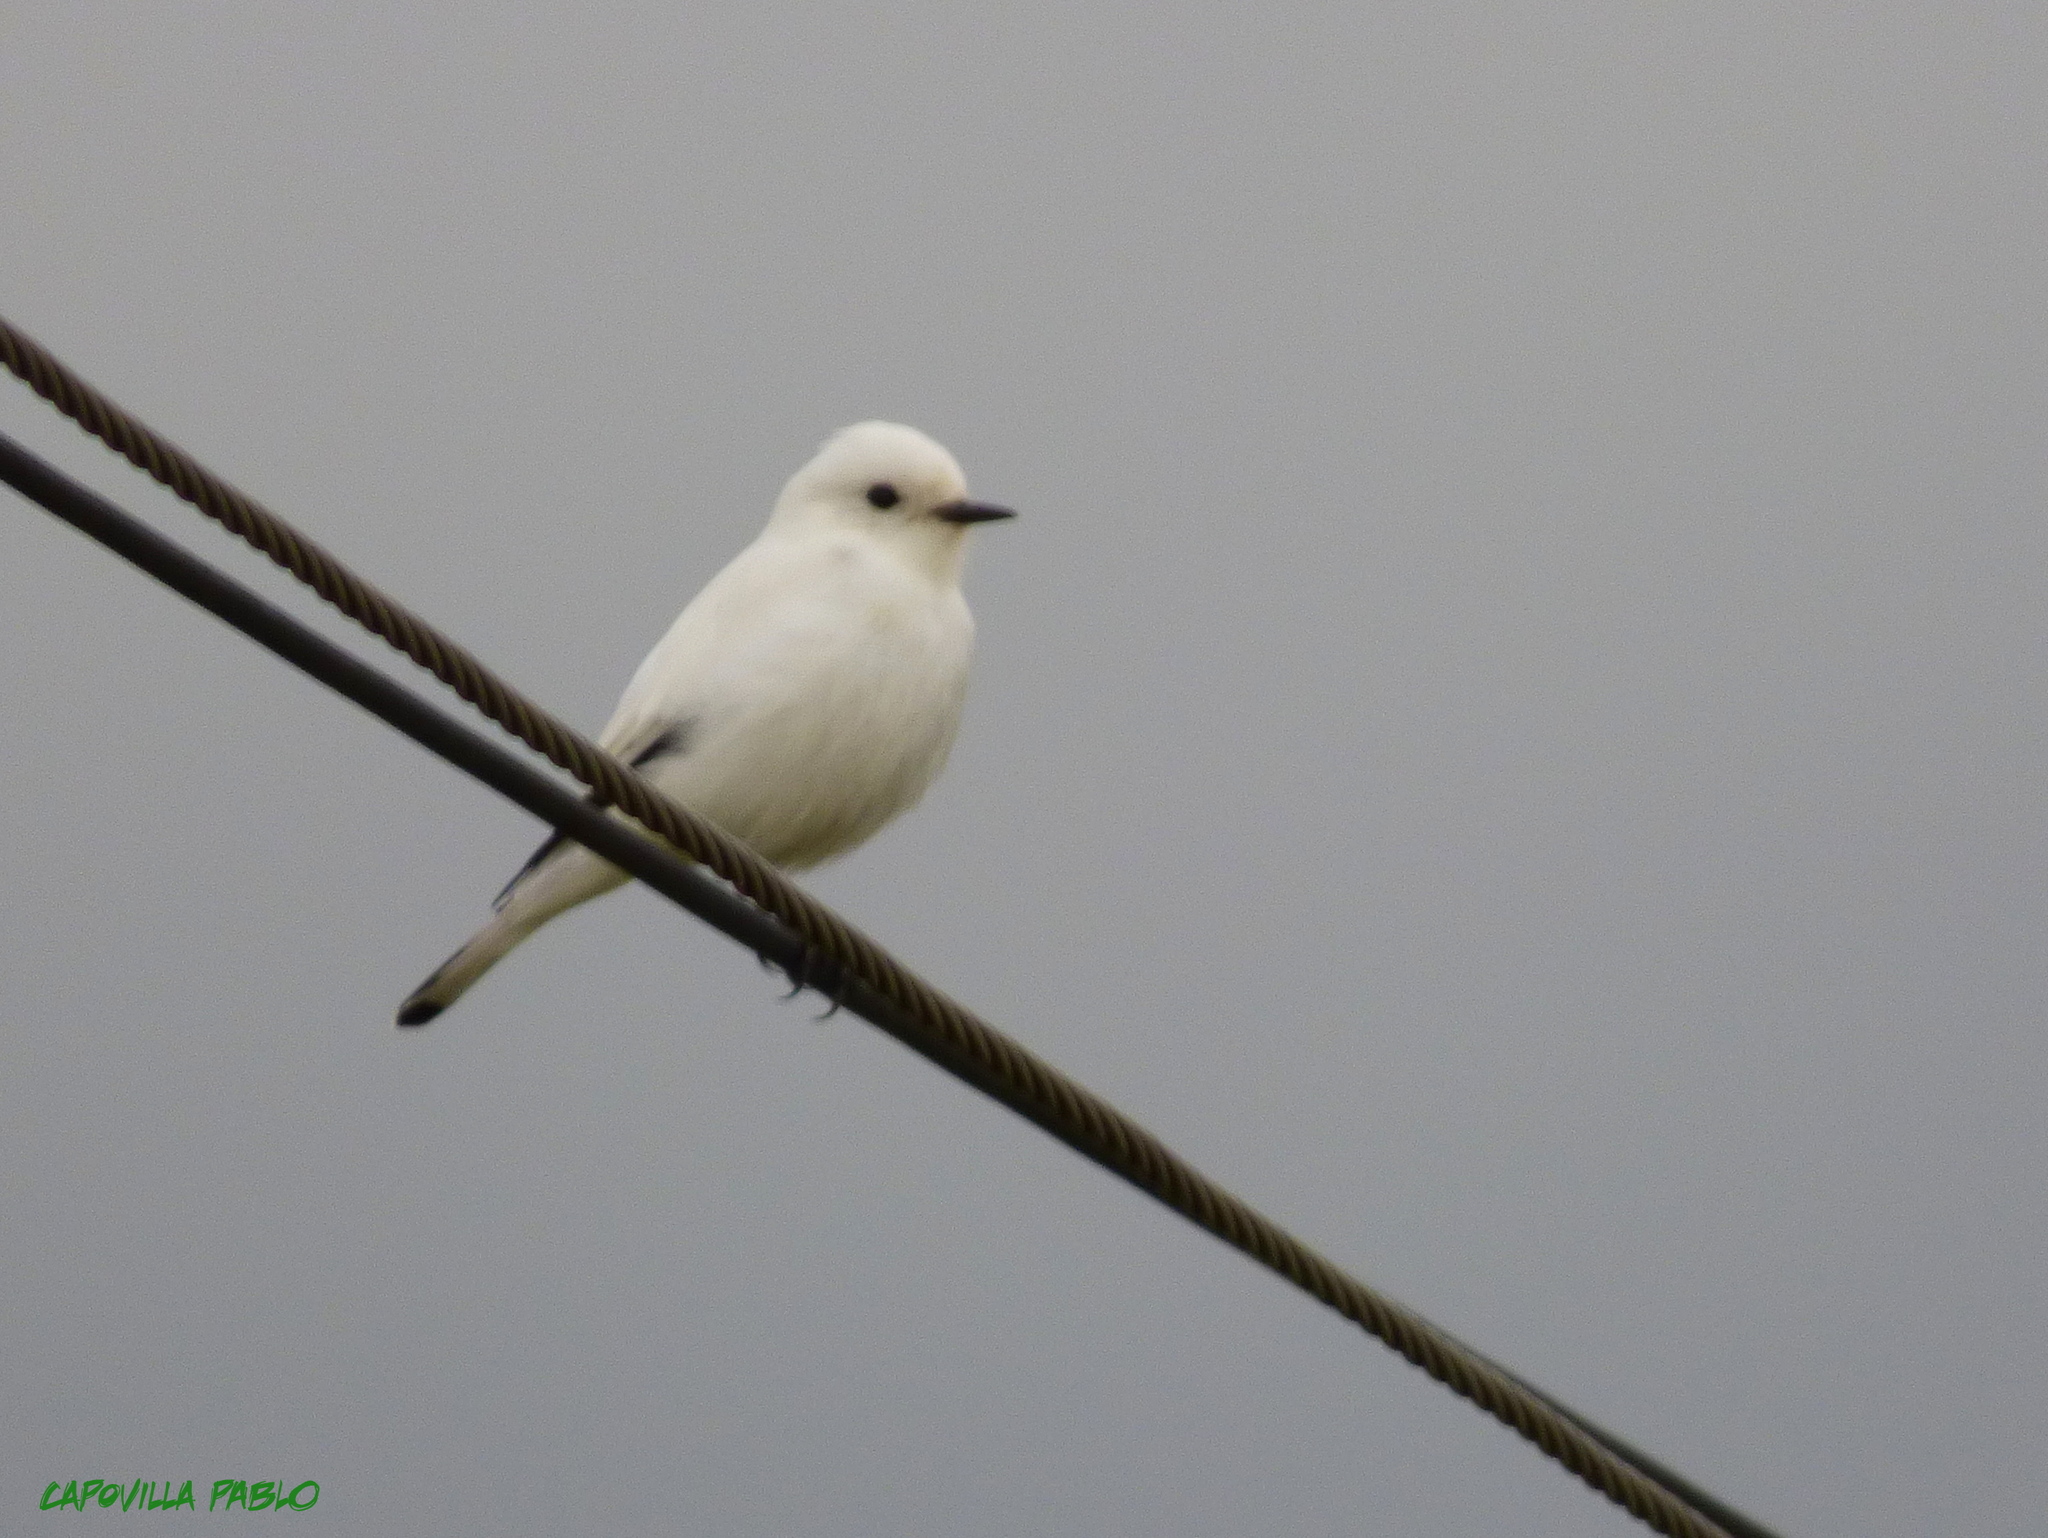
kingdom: Animalia
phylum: Chordata
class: Aves
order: Passeriformes
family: Tyrannidae
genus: Xolmis
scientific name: Xolmis irupero
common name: White monjita
